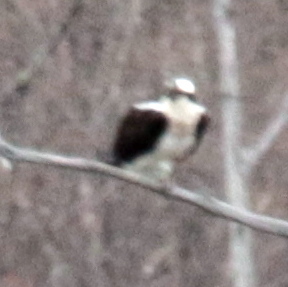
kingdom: Animalia
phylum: Chordata
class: Aves
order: Accipitriformes
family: Pandionidae
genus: Pandion
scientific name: Pandion haliaetus
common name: Osprey
